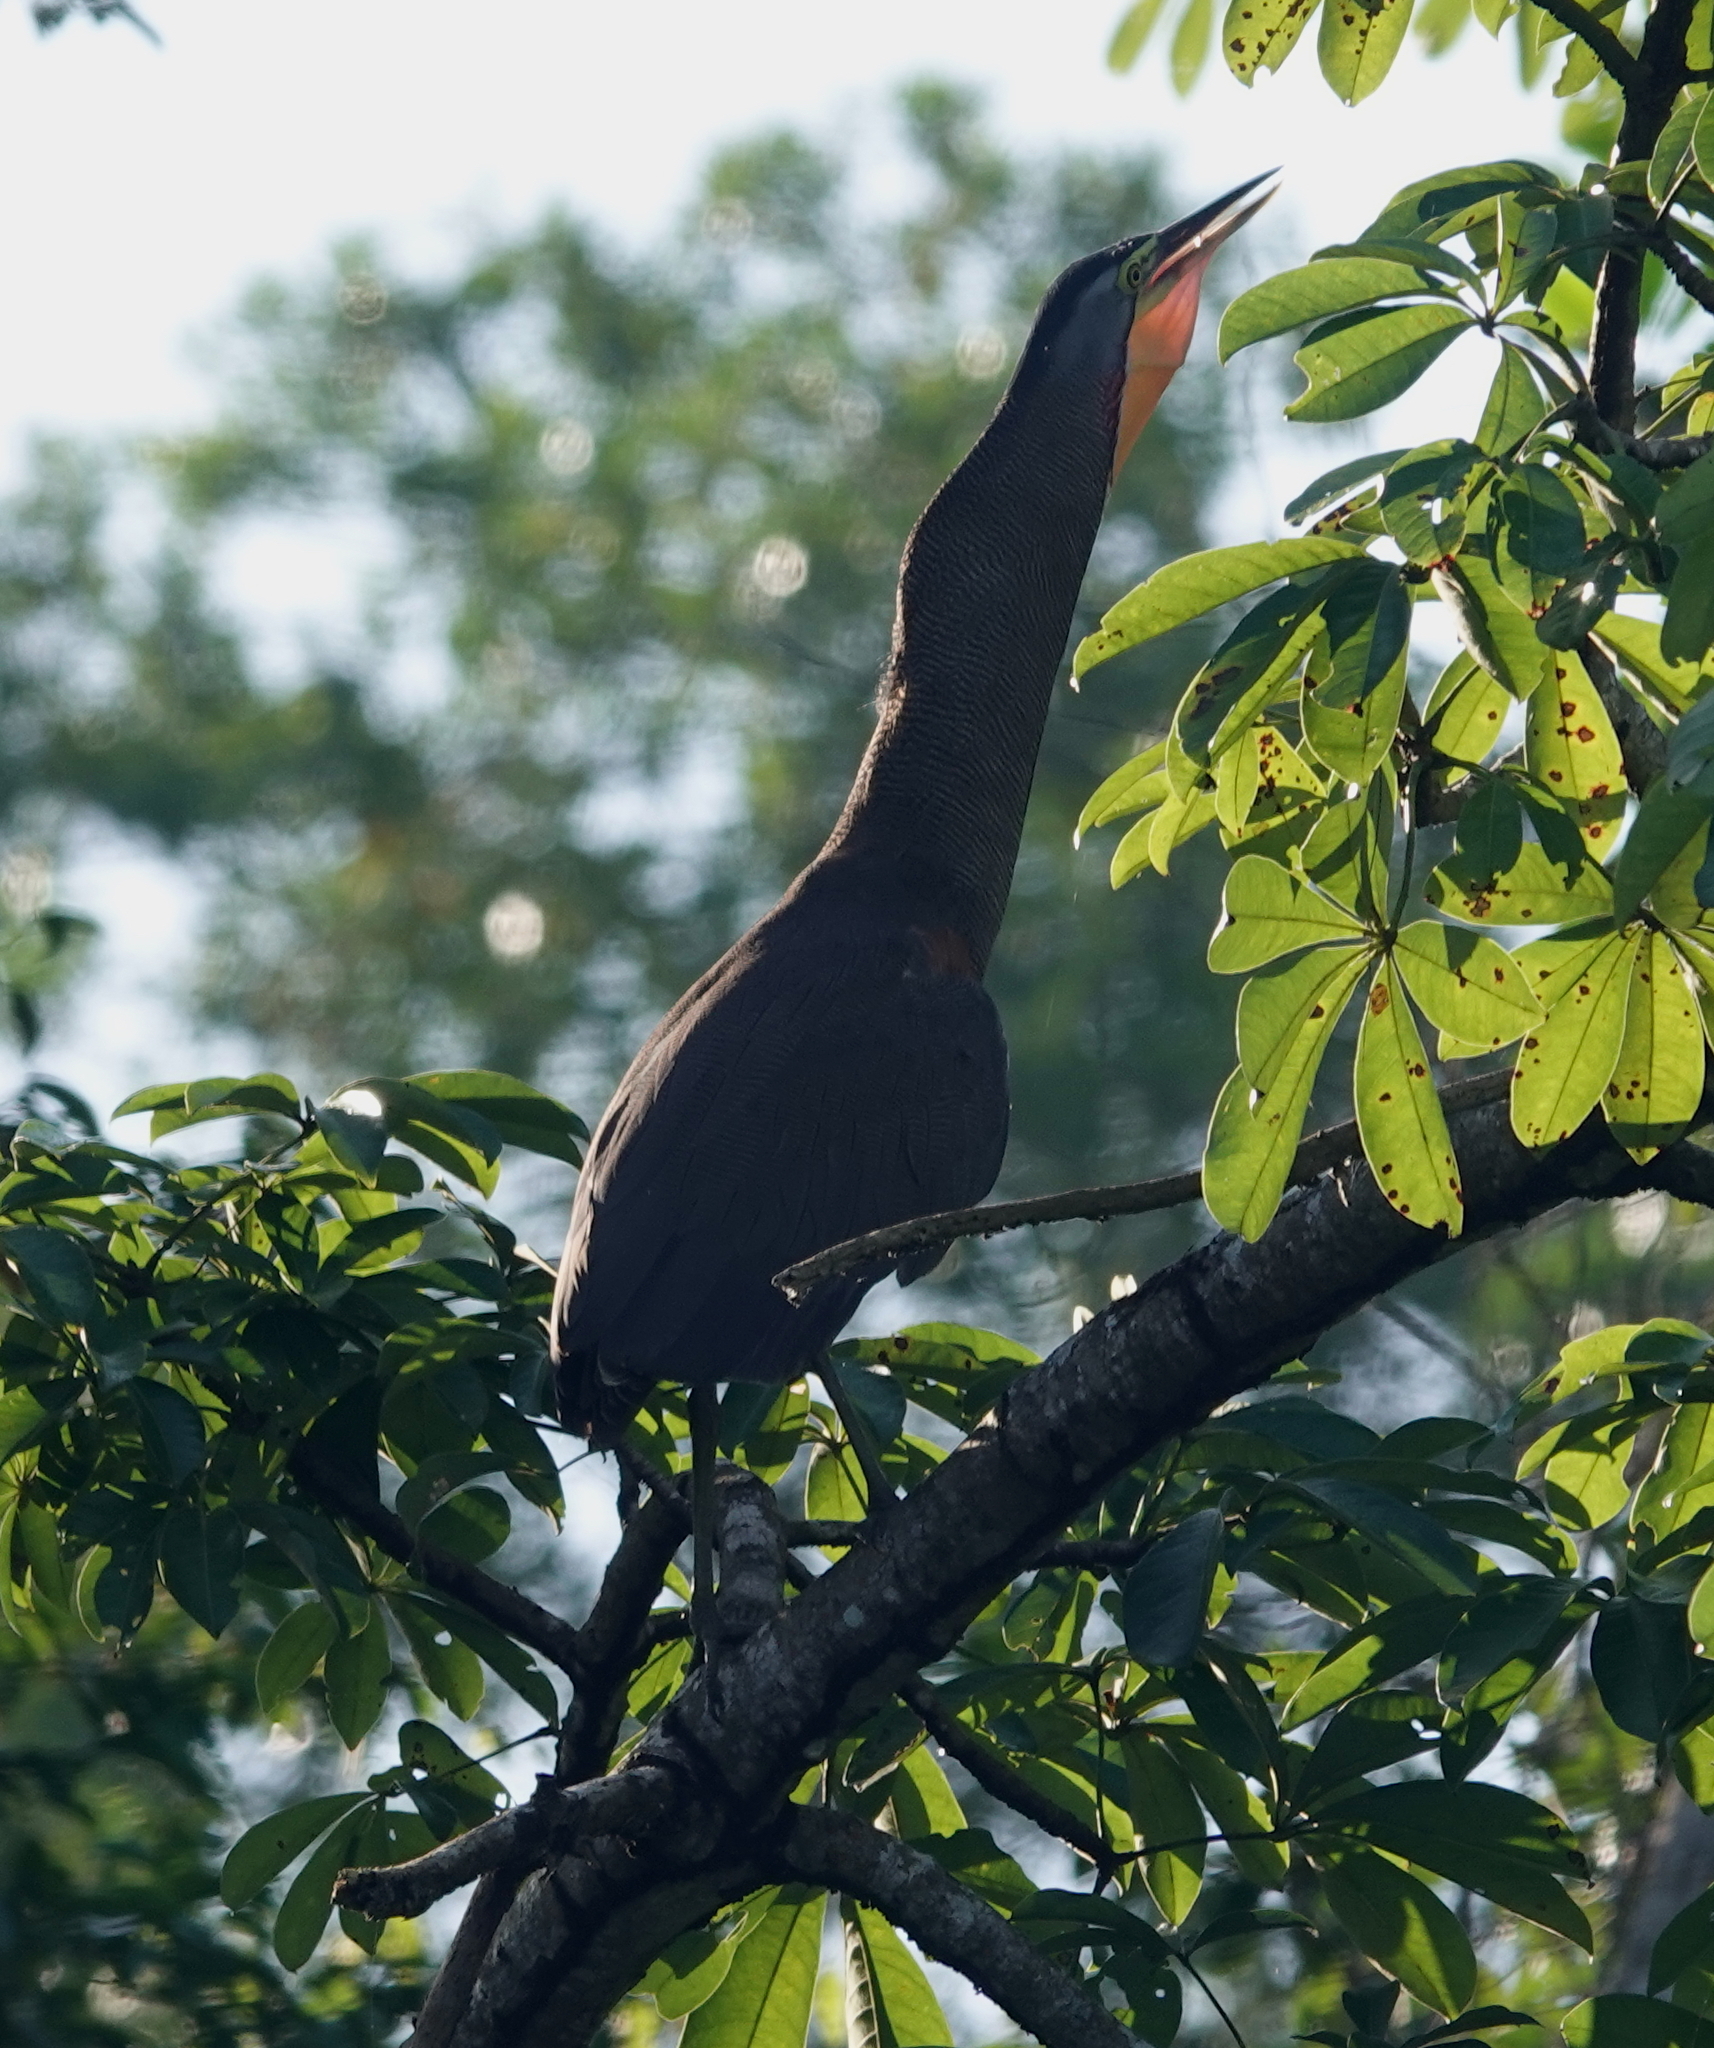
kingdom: Animalia
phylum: Chordata
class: Aves
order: Pelecaniformes
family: Ardeidae
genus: Tigrisoma
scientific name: Tigrisoma mexicanum
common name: Bare-throated tiger-heron
